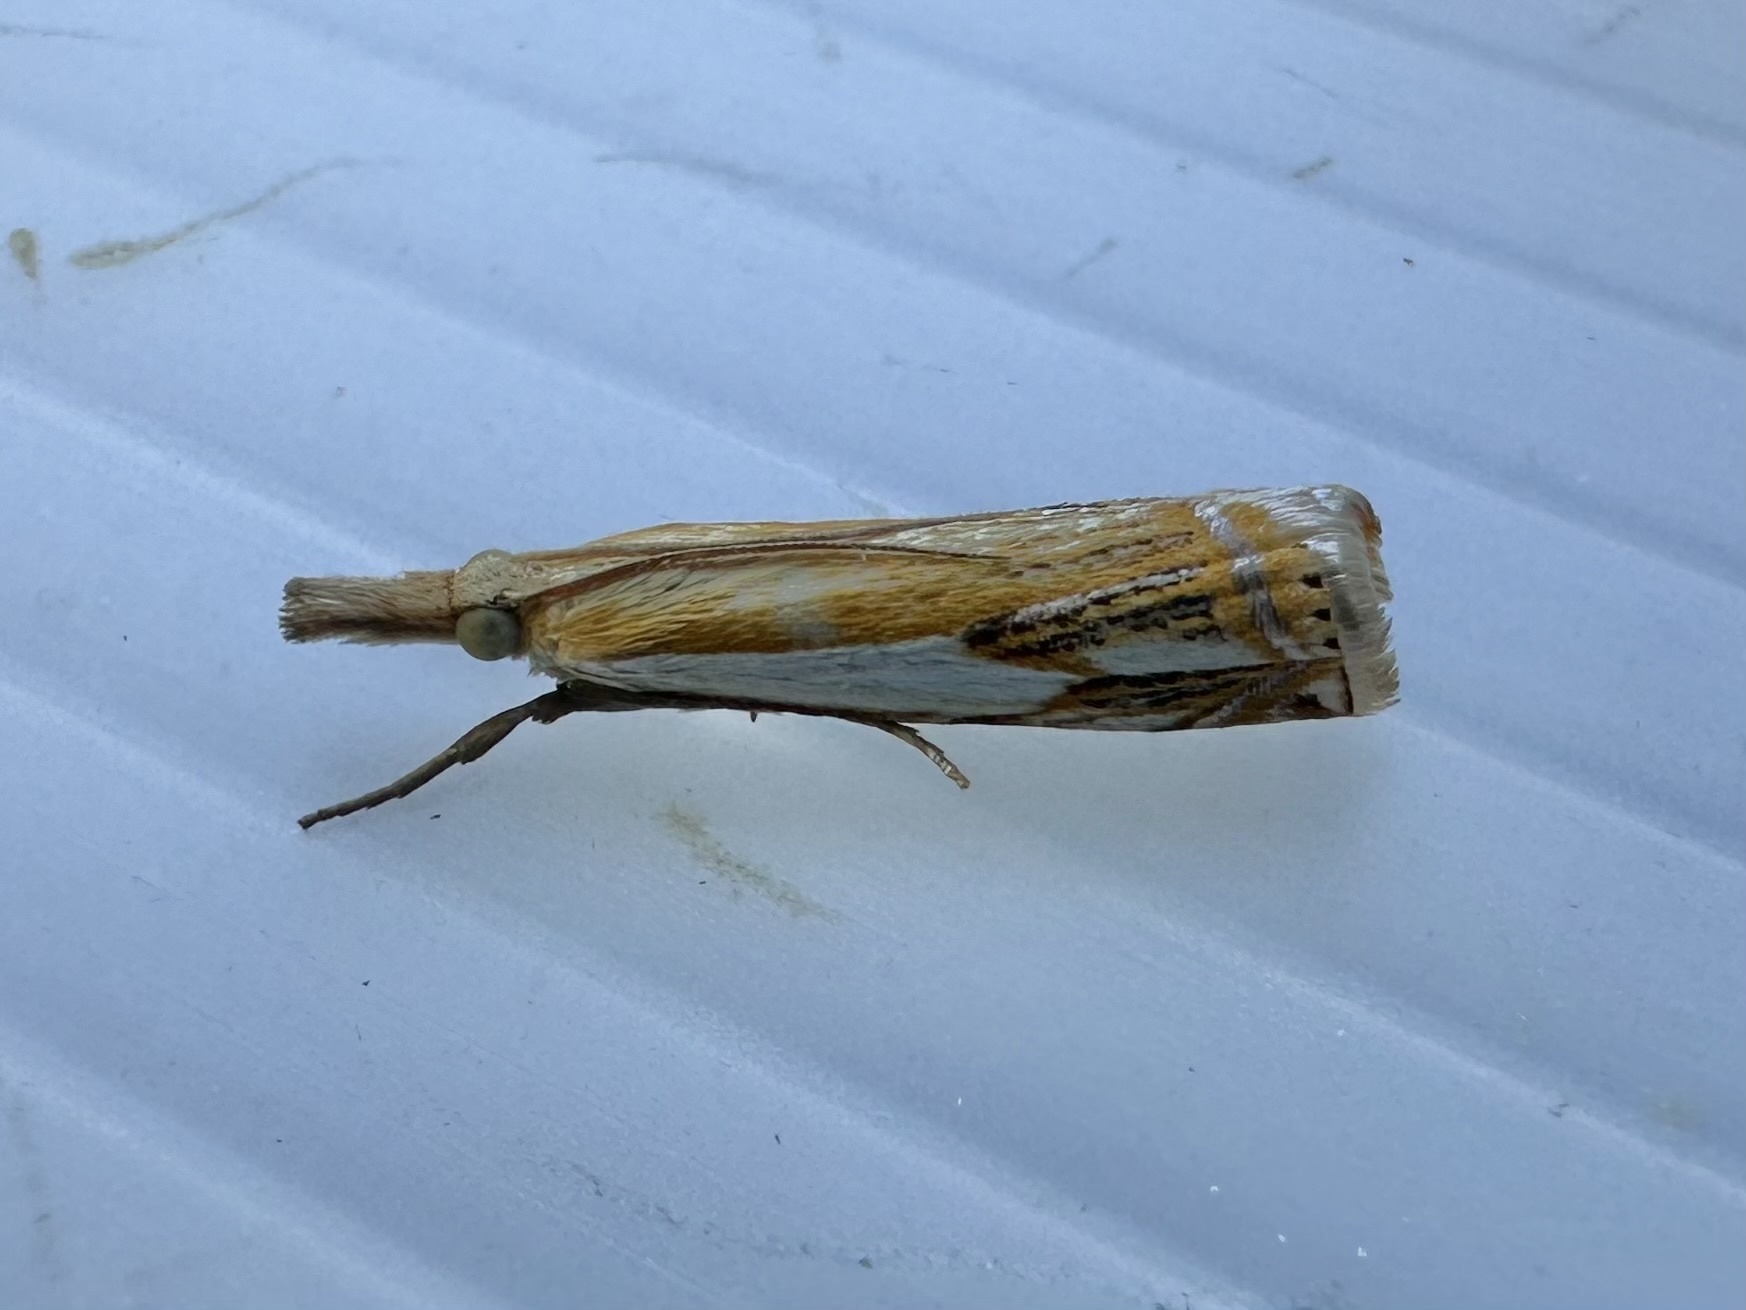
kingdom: Animalia
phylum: Arthropoda
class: Insecta
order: Lepidoptera
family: Crambidae
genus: Crambus
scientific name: Crambus agitatellus
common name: Double-banded grass-veneer
